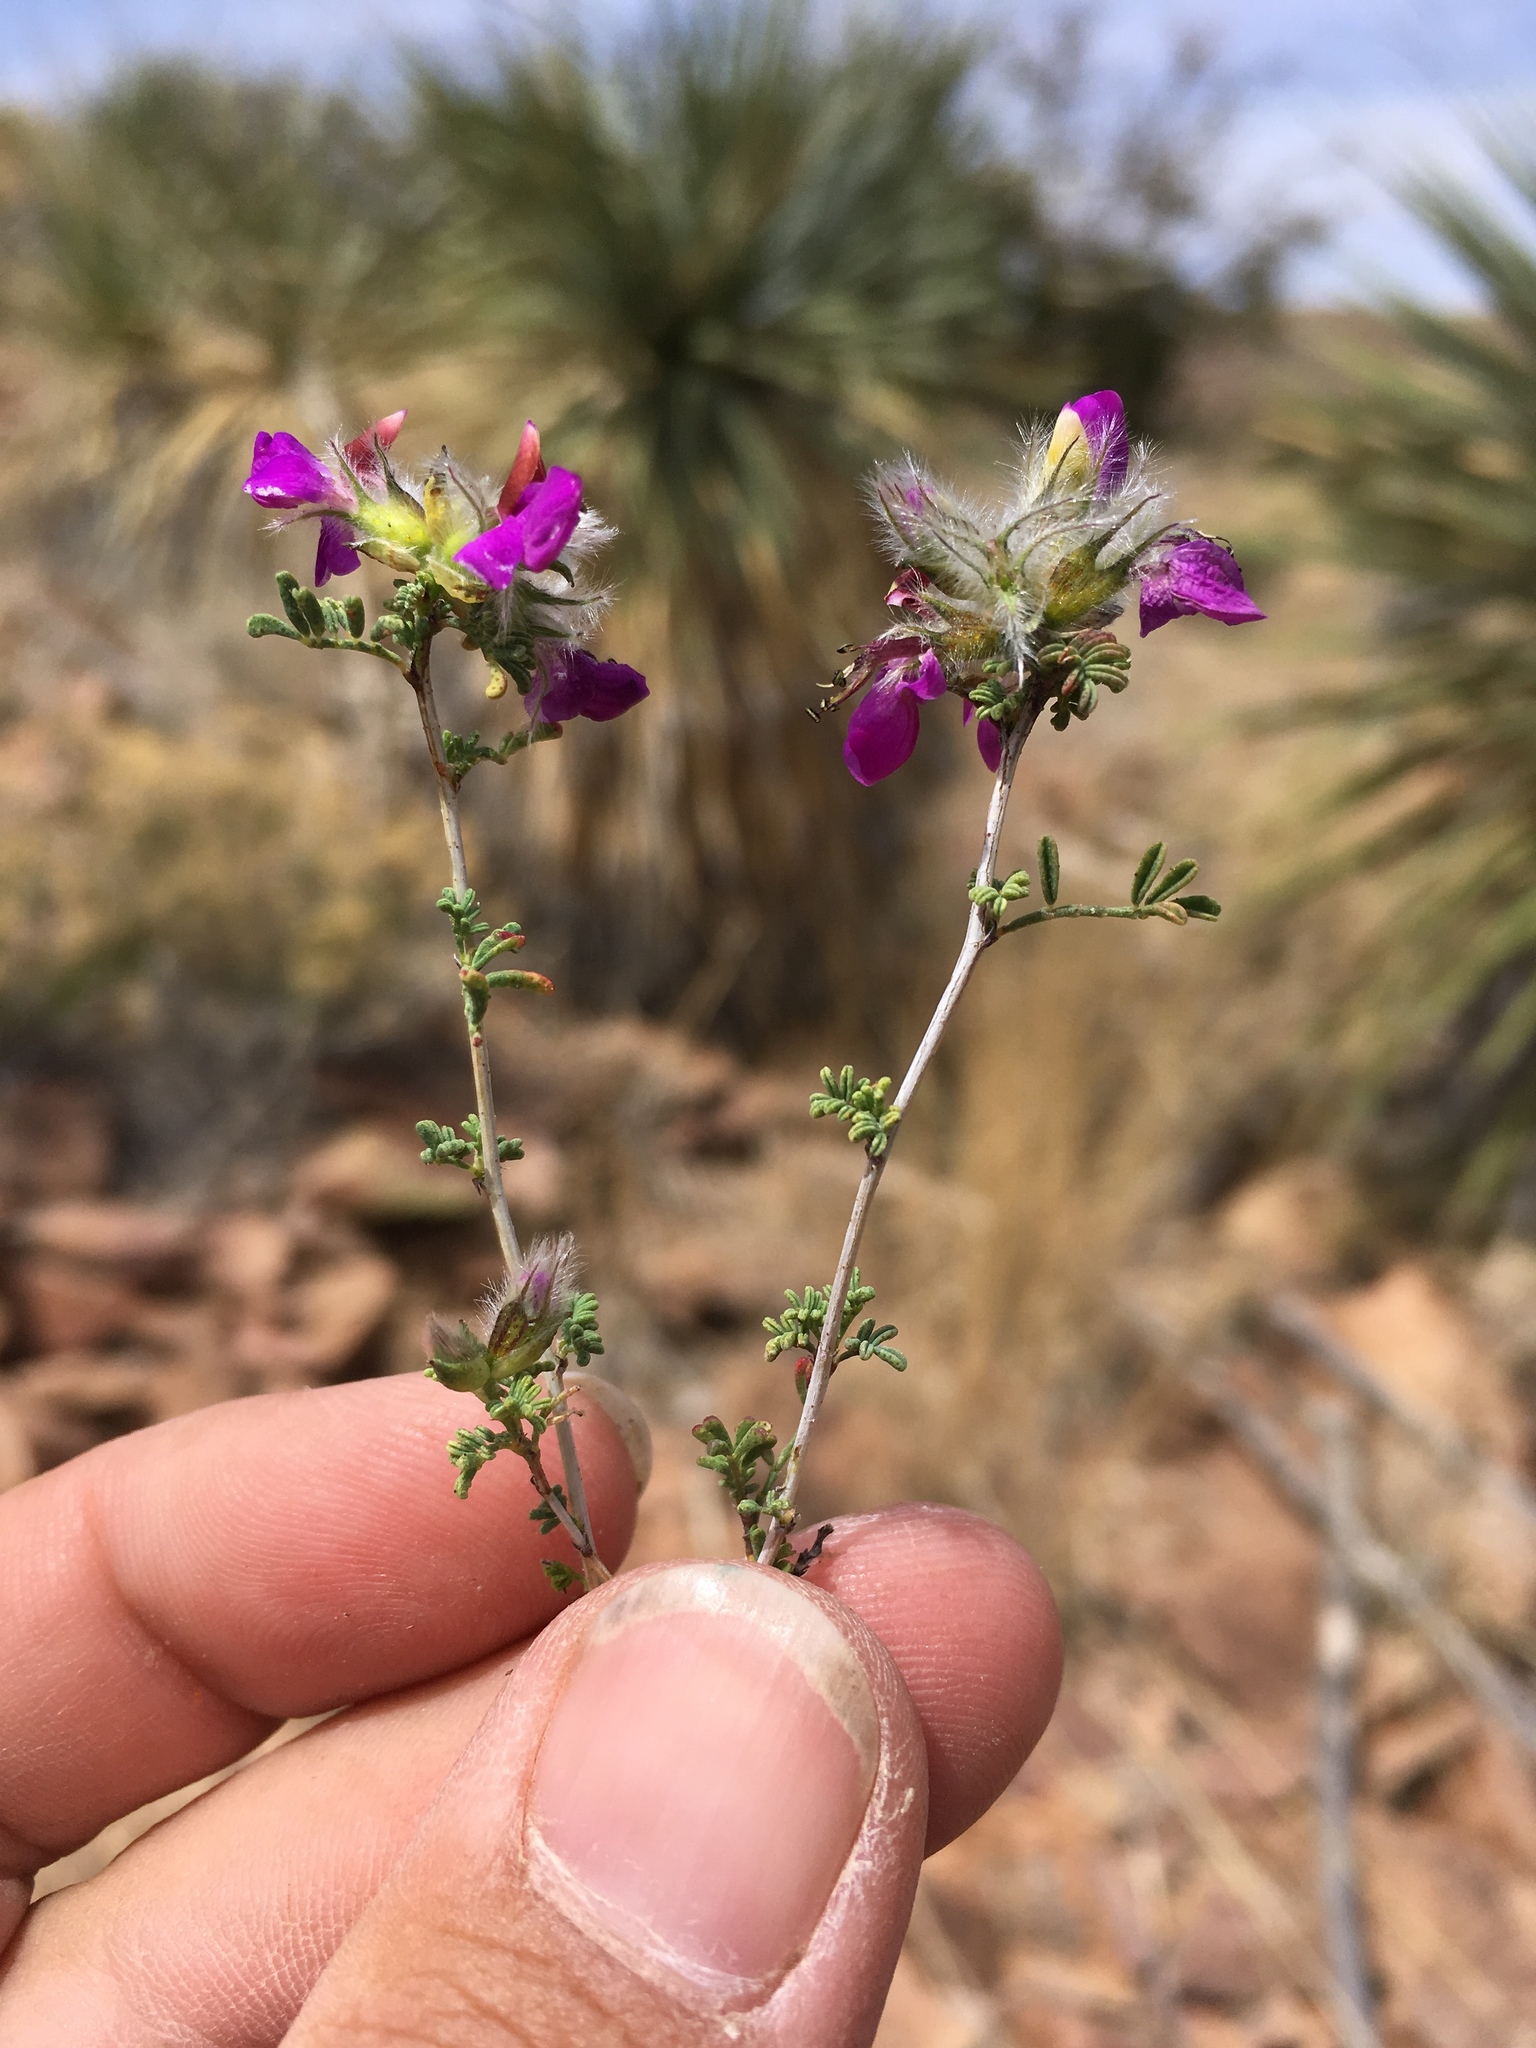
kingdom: Plantae
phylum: Tracheophyta
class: Magnoliopsida
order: Fabales
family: Fabaceae
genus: Dalea
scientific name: Dalea formosa
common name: Feather-plume dalea
